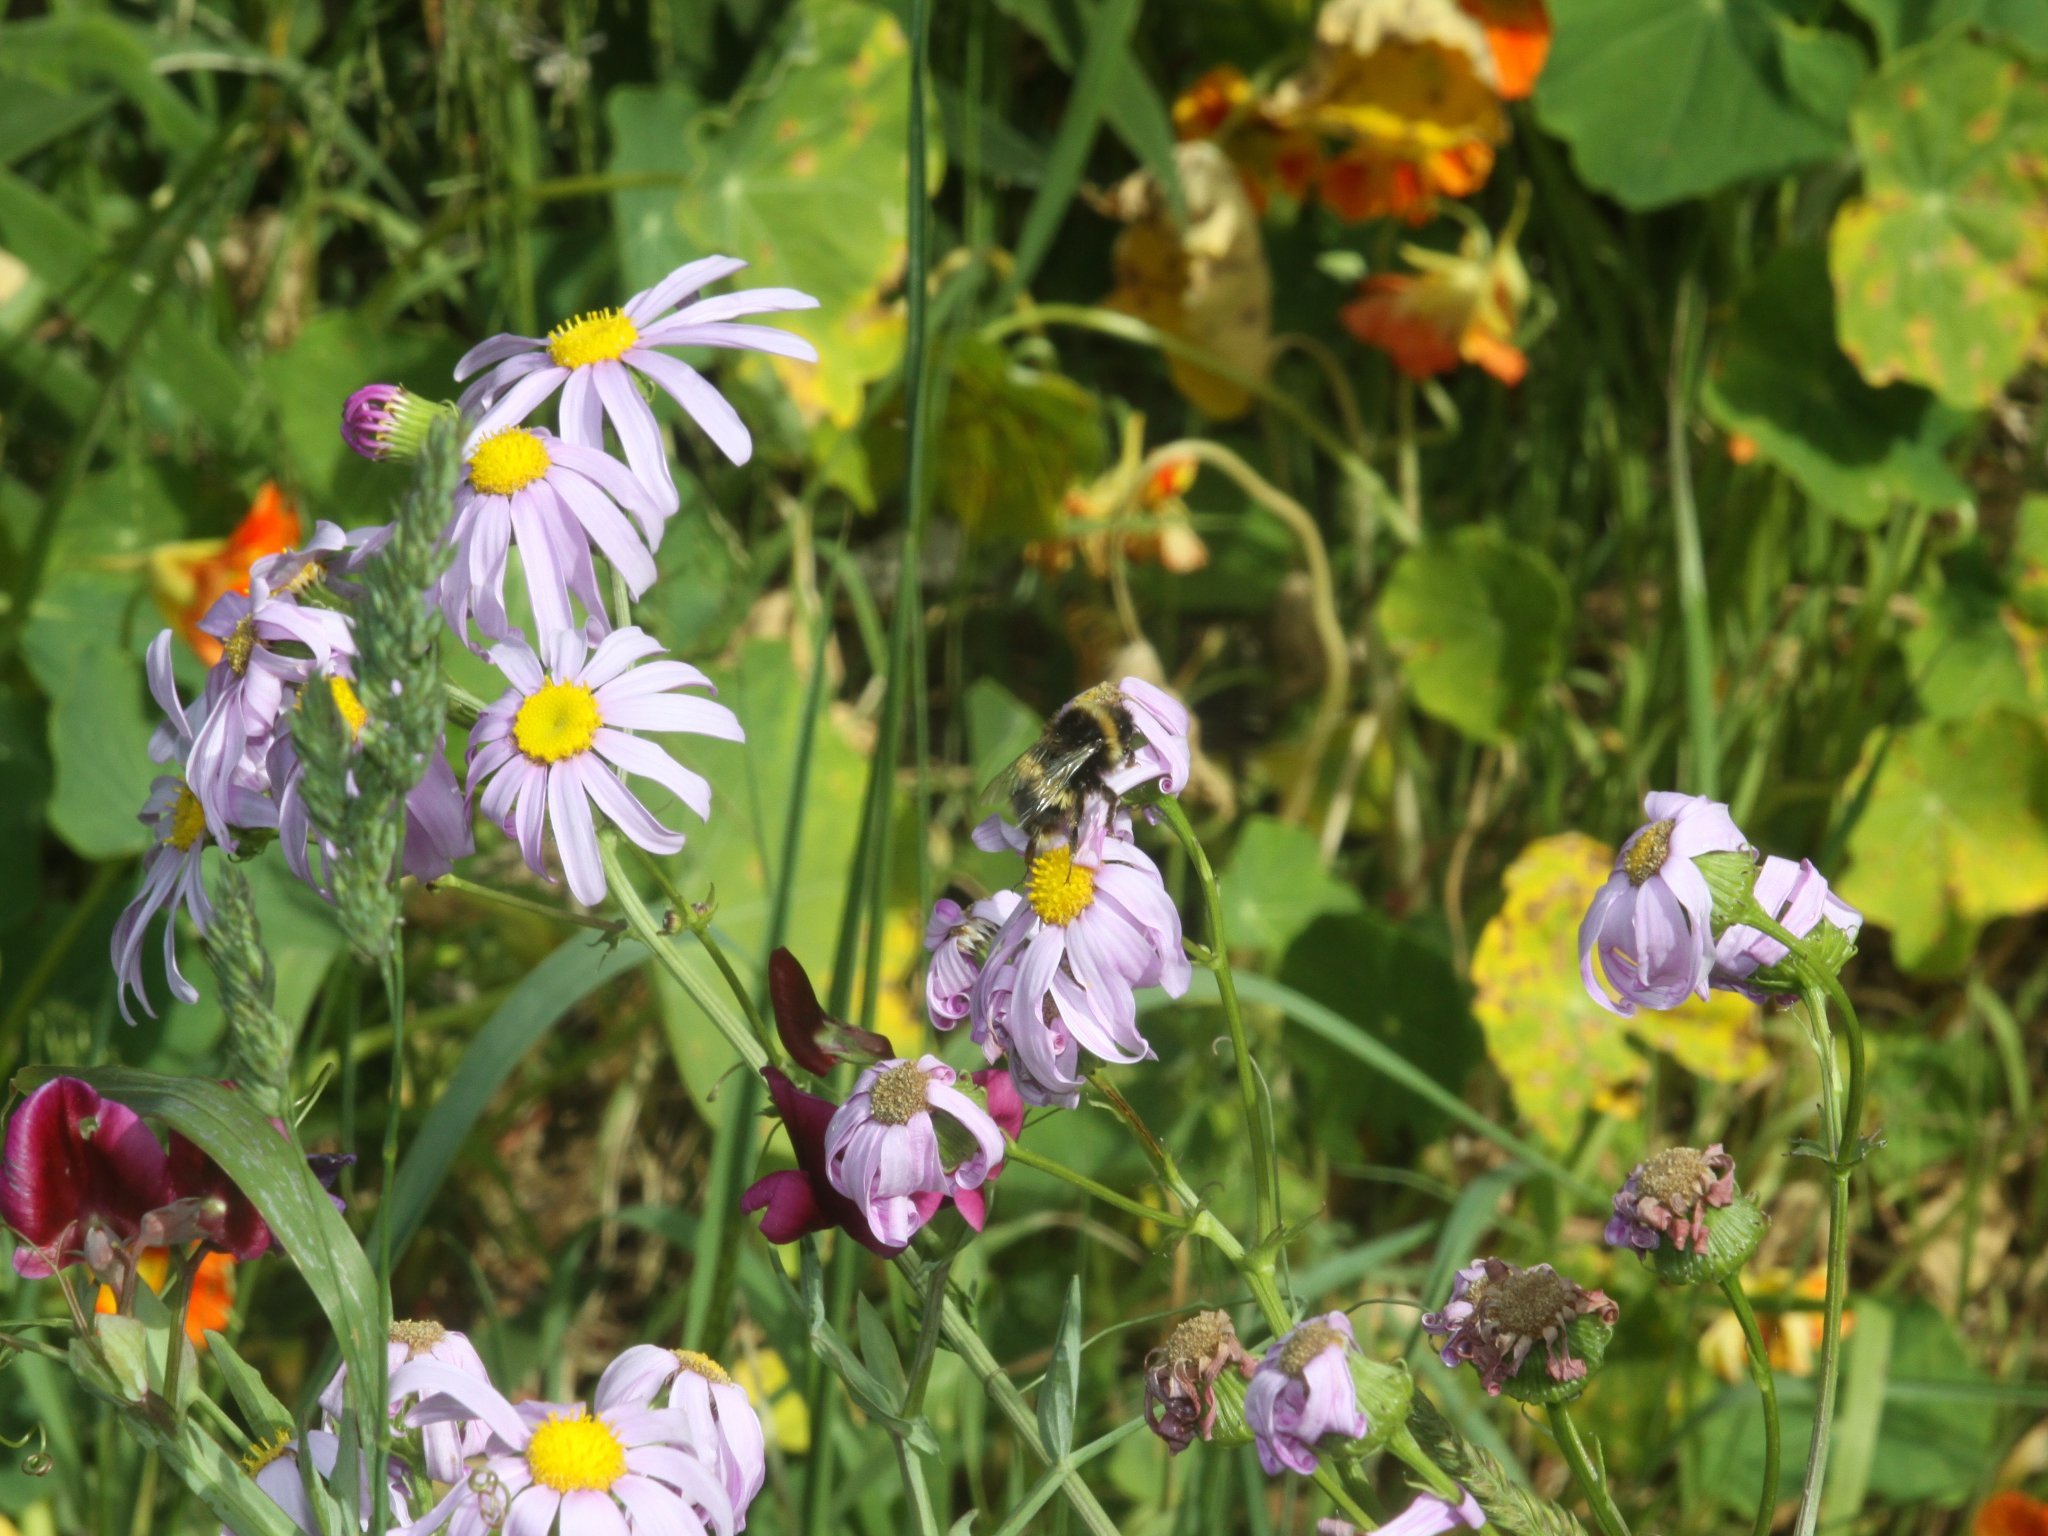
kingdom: Animalia
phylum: Arthropoda
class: Insecta
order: Hymenoptera
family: Apidae
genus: Bombus
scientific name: Bombus terrestris
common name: Buff-tailed bumblebee
